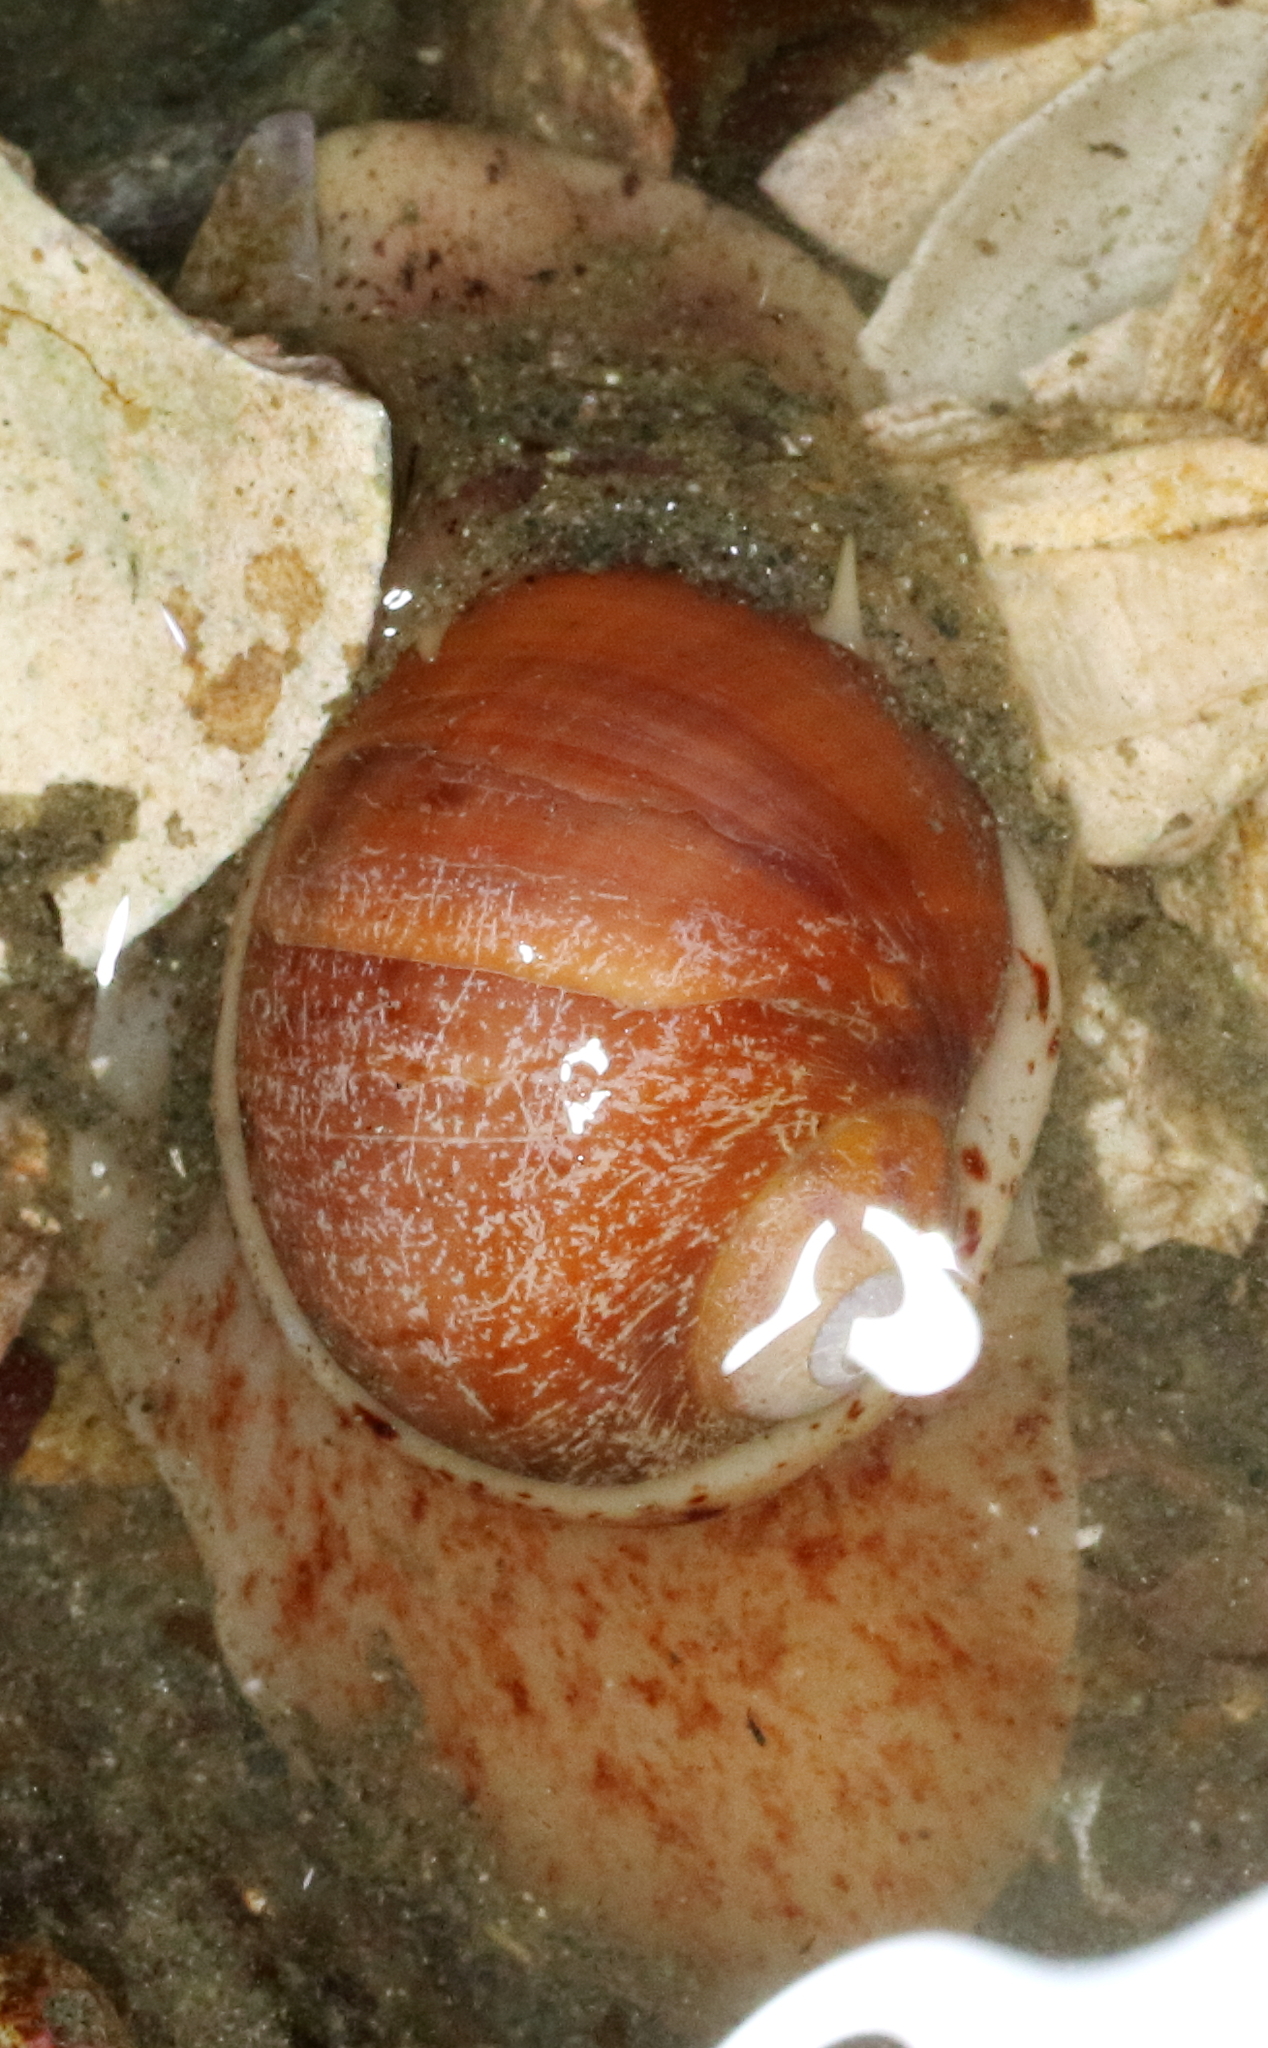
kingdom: Animalia
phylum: Mollusca
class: Gastropoda
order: Littorinimorpha
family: Naticidae
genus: Cryptonatica
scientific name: Cryptonatica aleutica
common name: Aleutian moon snail
